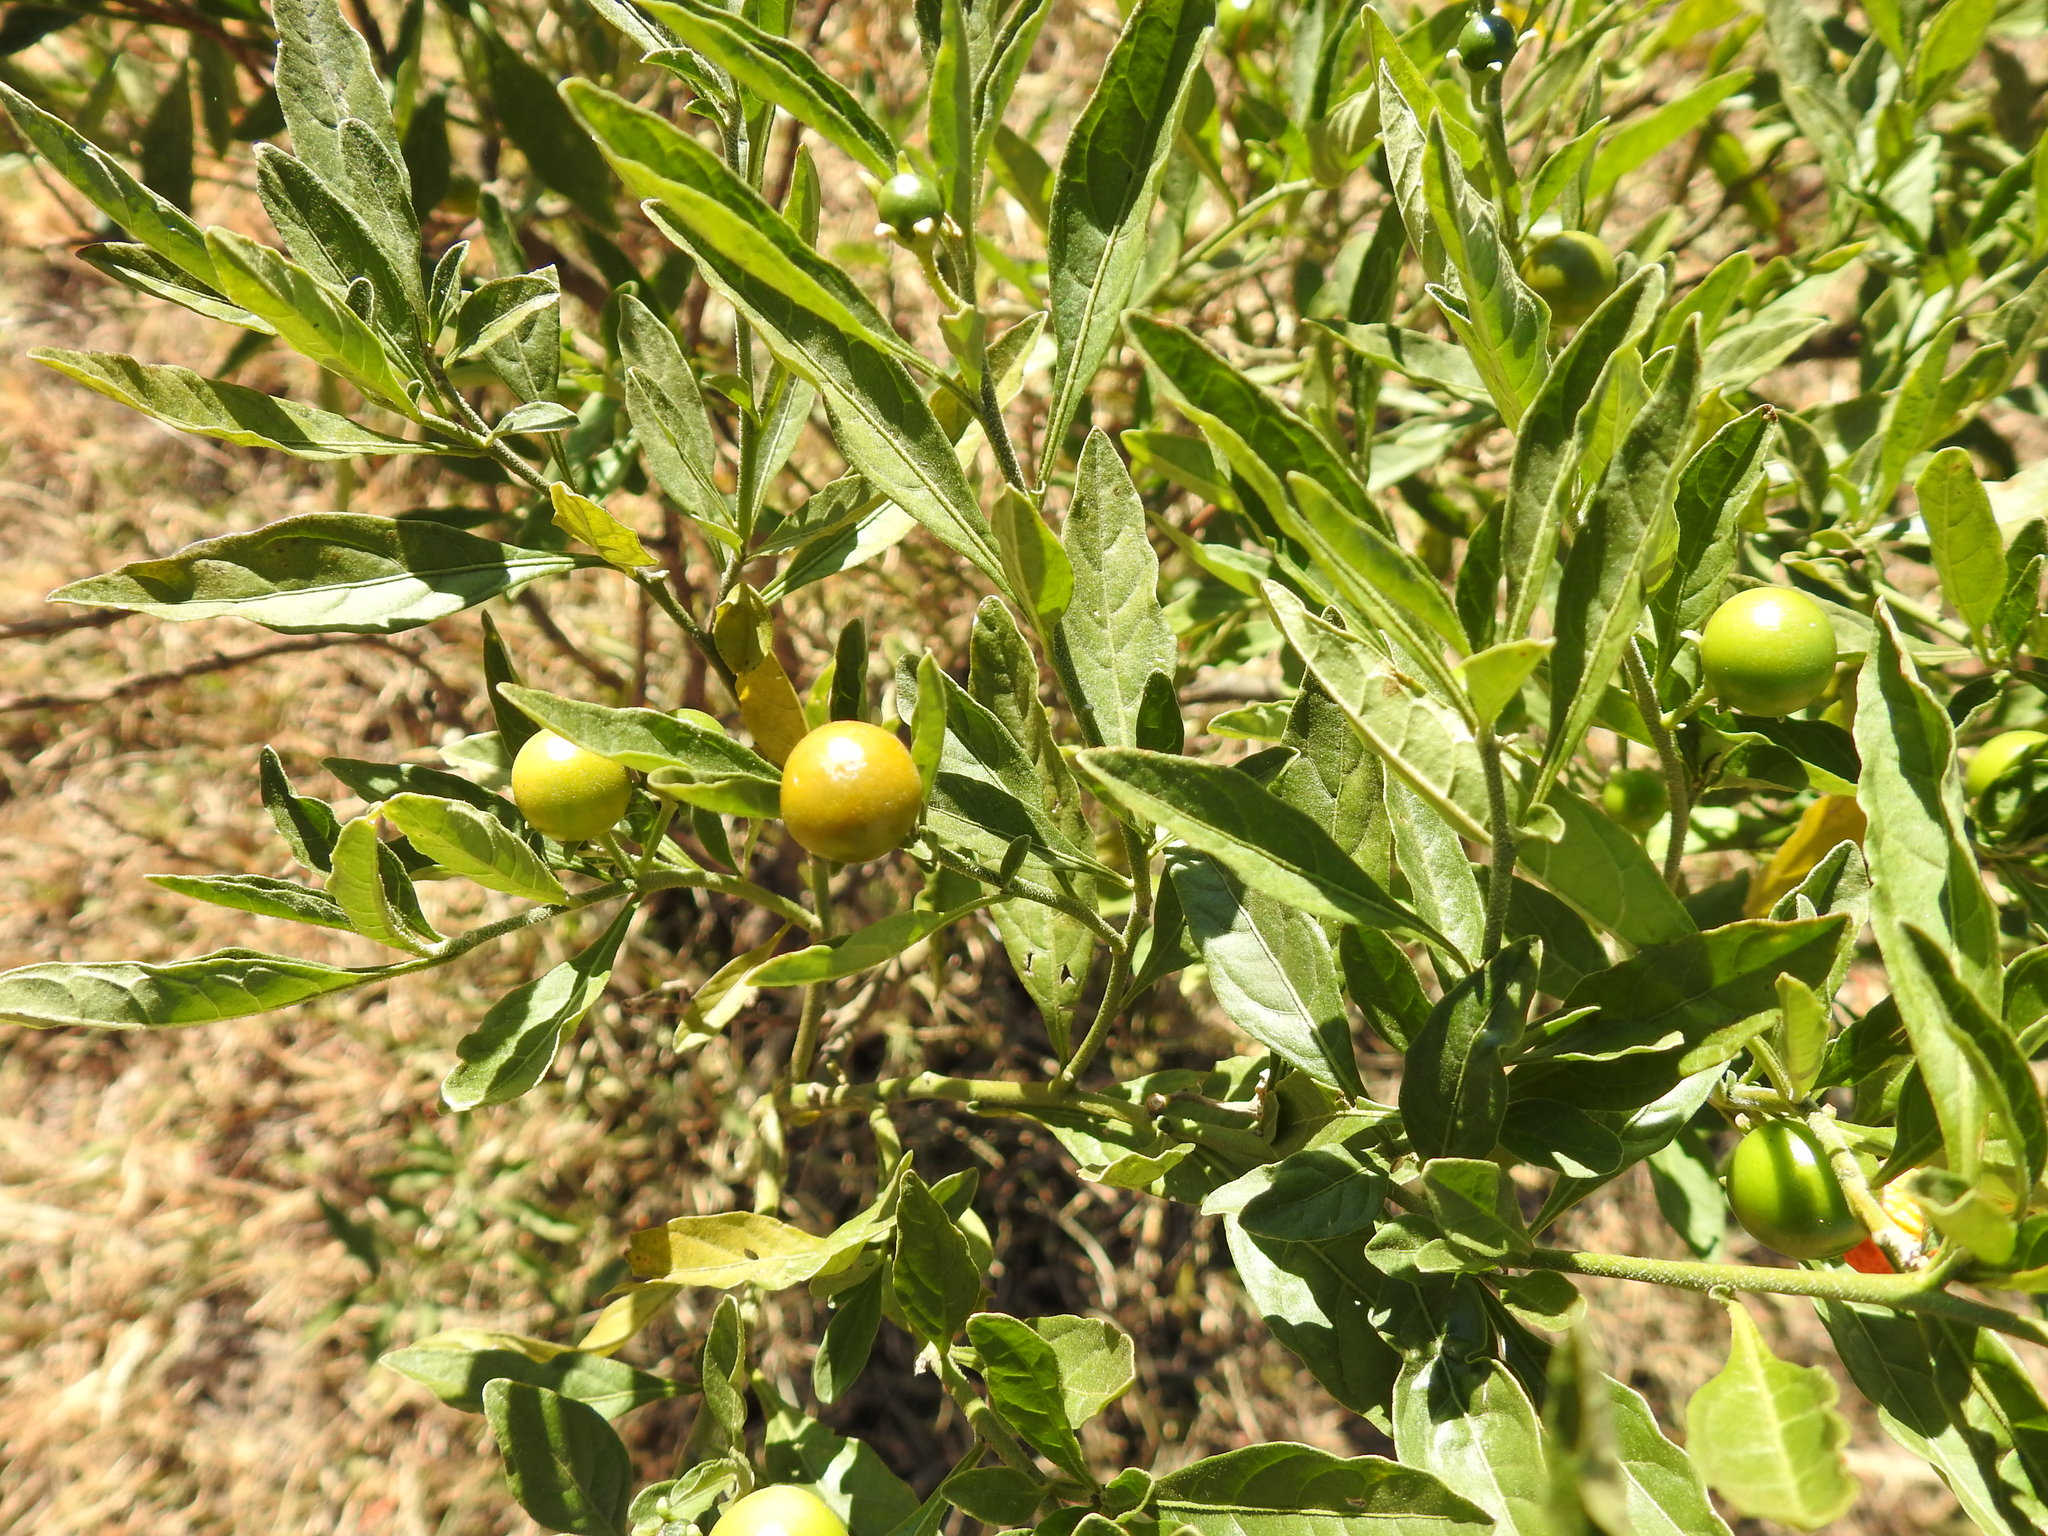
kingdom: Plantae
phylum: Tracheophyta
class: Magnoliopsida
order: Solanales
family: Solanaceae
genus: Solanum
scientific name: Solanum pseudocapsicum
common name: Jerusalem cherry
